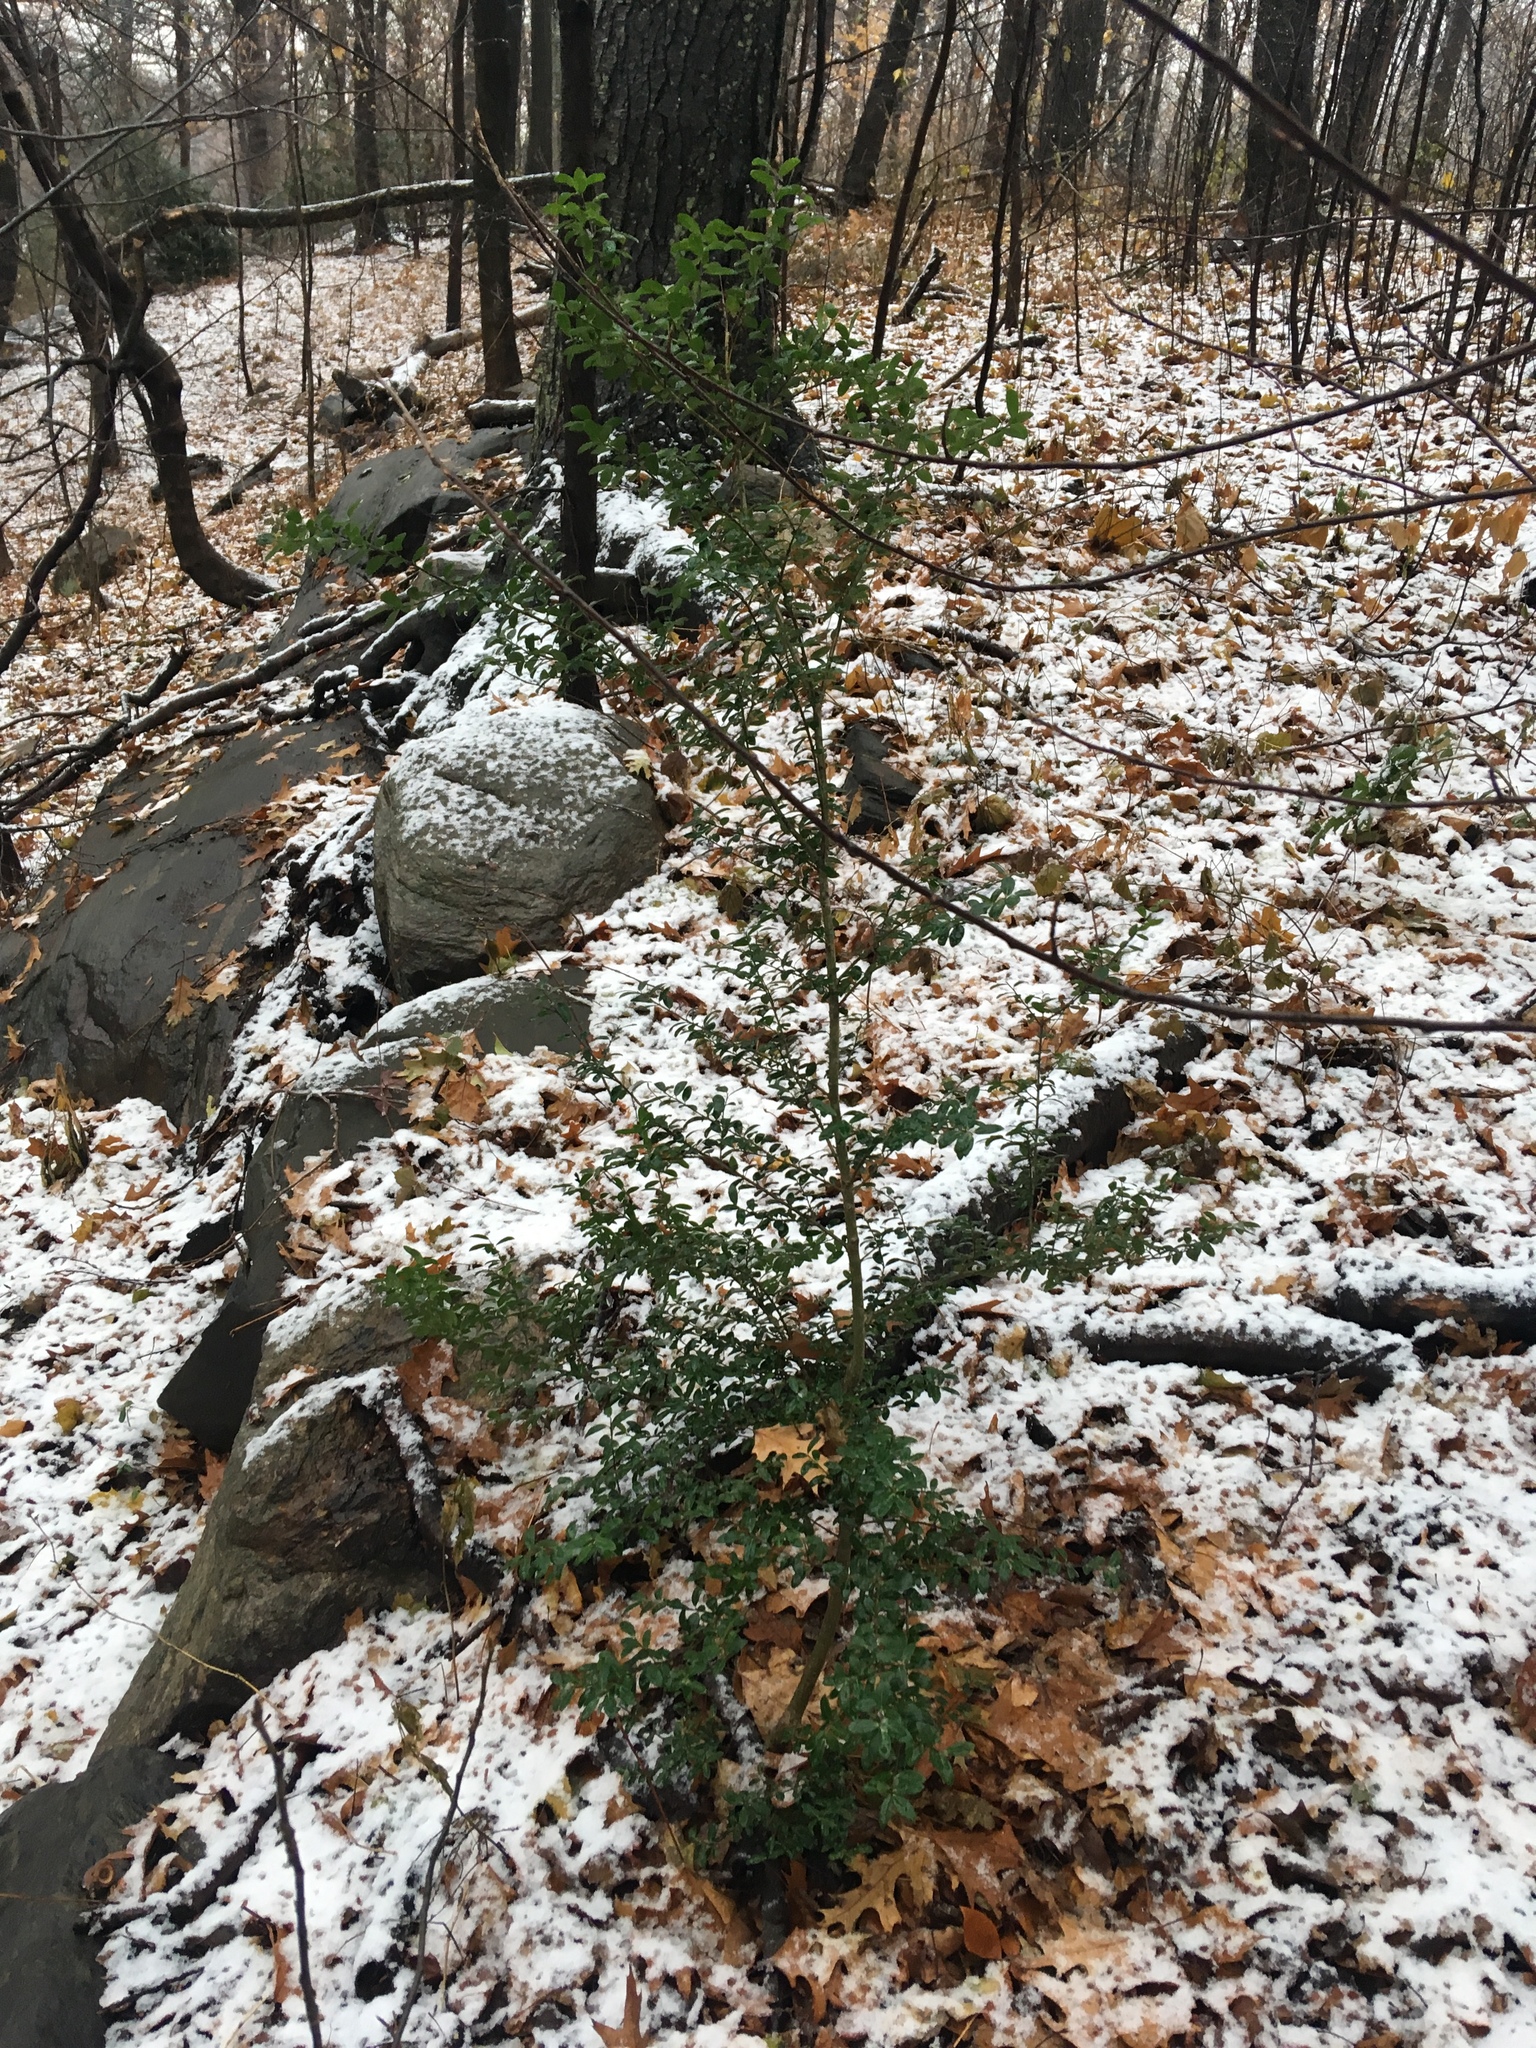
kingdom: Plantae
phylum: Tracheophyta
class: Magnoliopsida
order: Aquifoliales
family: Aquifoliaceae
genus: Ilex
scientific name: Ilex crenata
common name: Japanese holly
